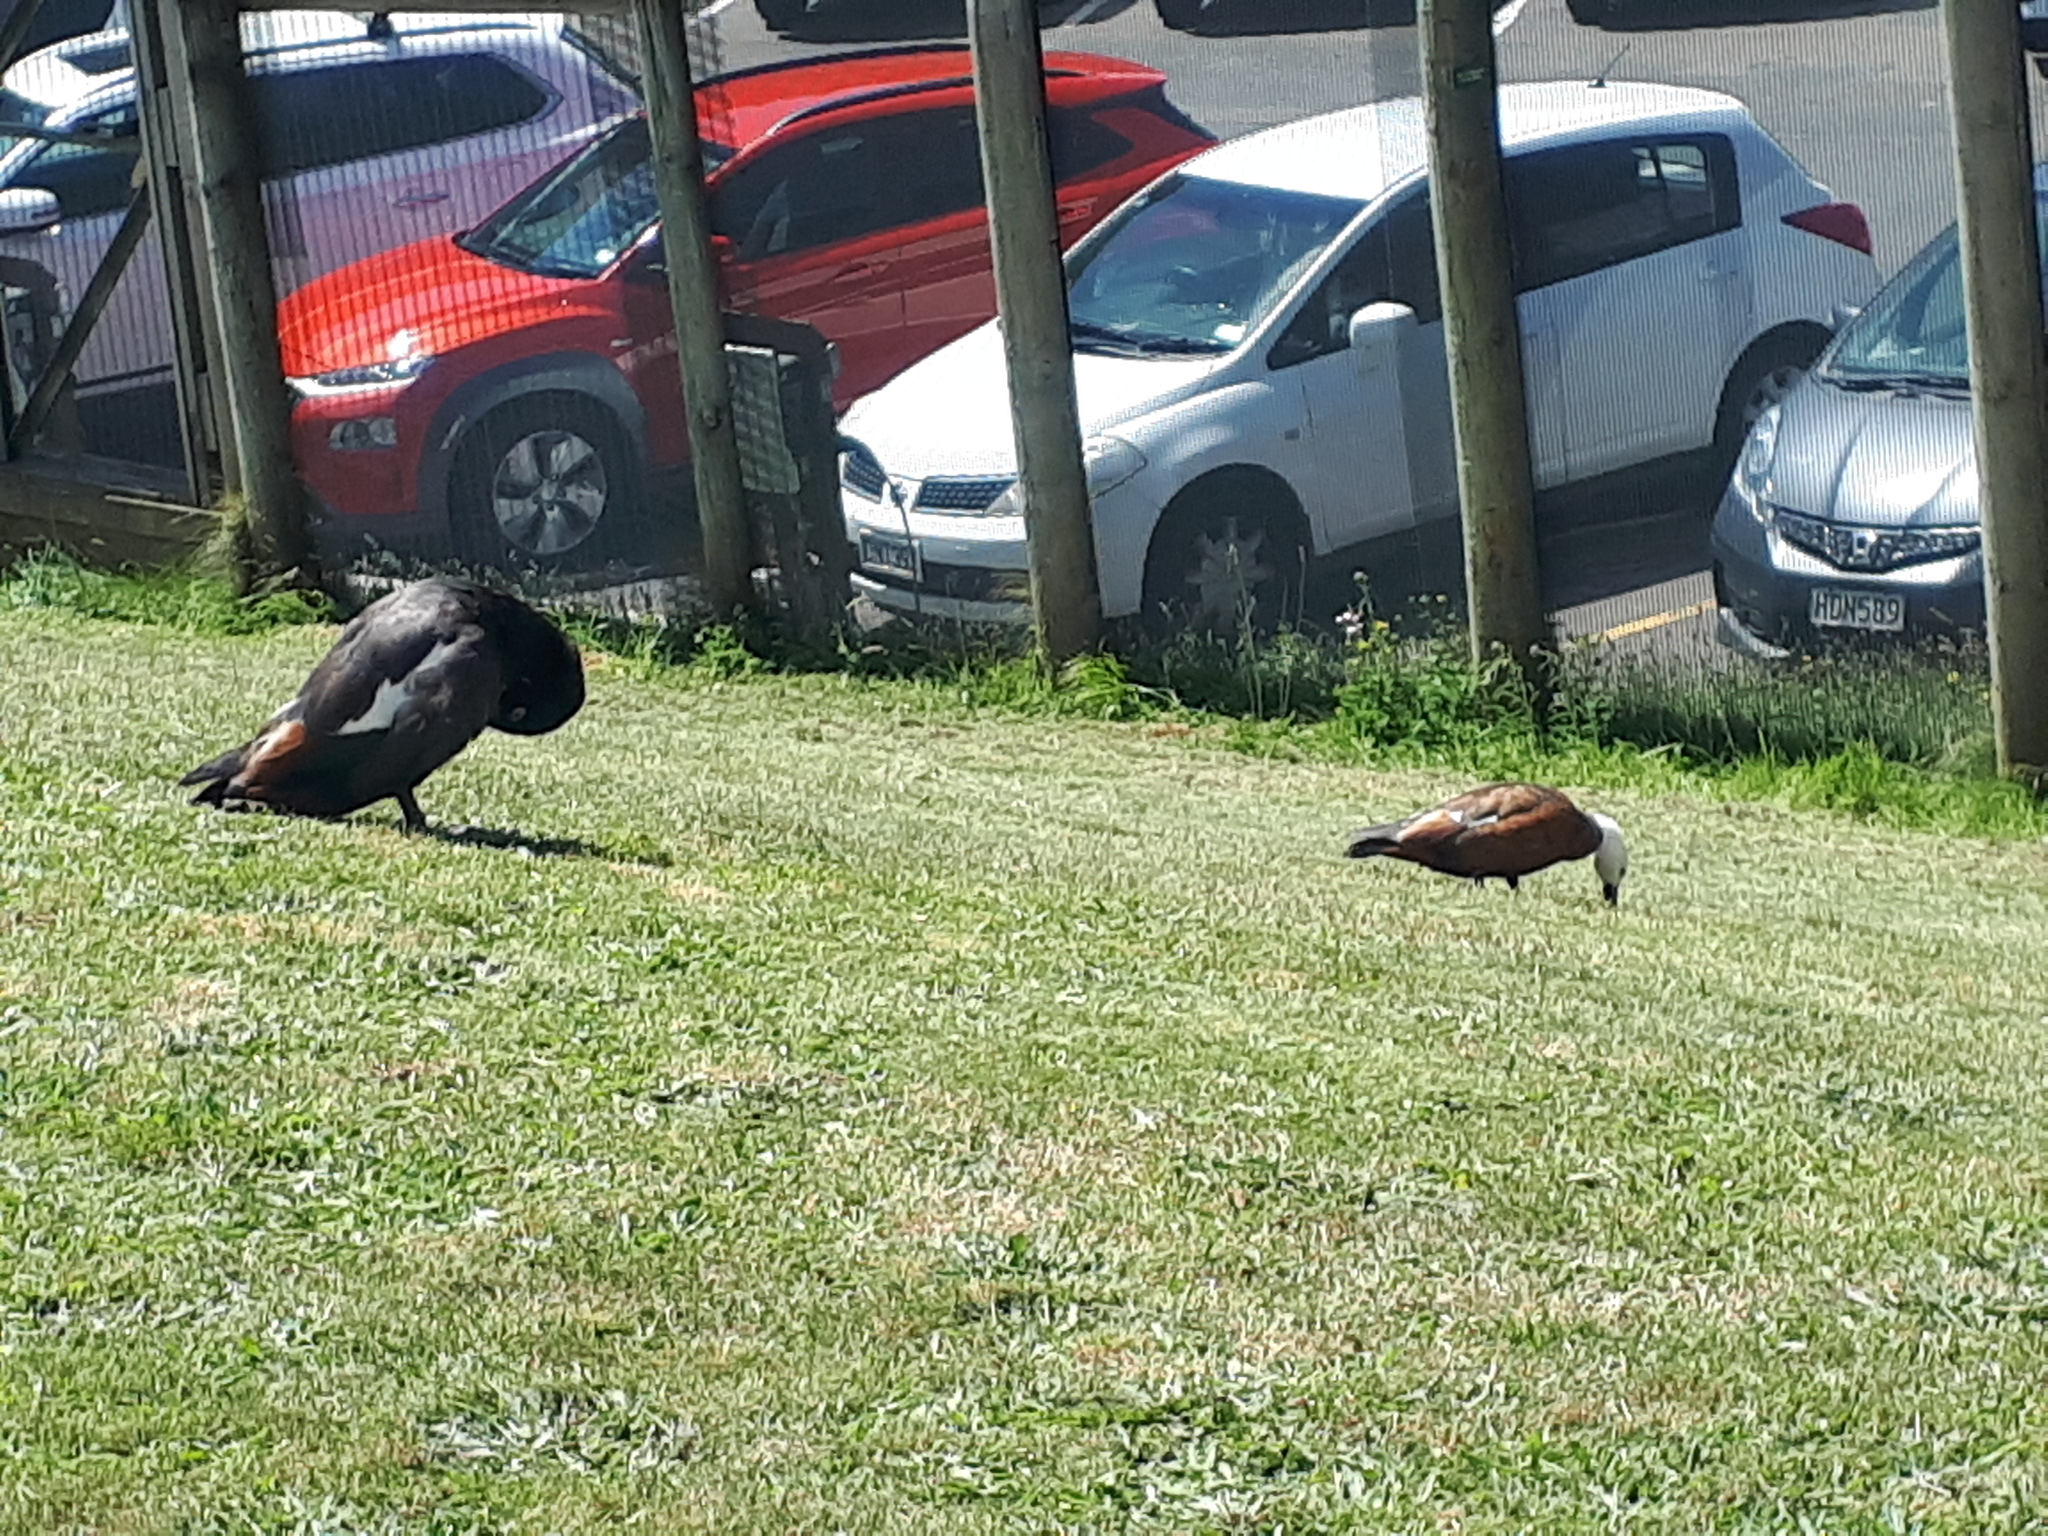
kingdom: Animalia
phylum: Chordata
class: Aves
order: Anseriformes
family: Anatidae
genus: Tadorna
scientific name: Tadorna variegata
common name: Paradise shelduck
